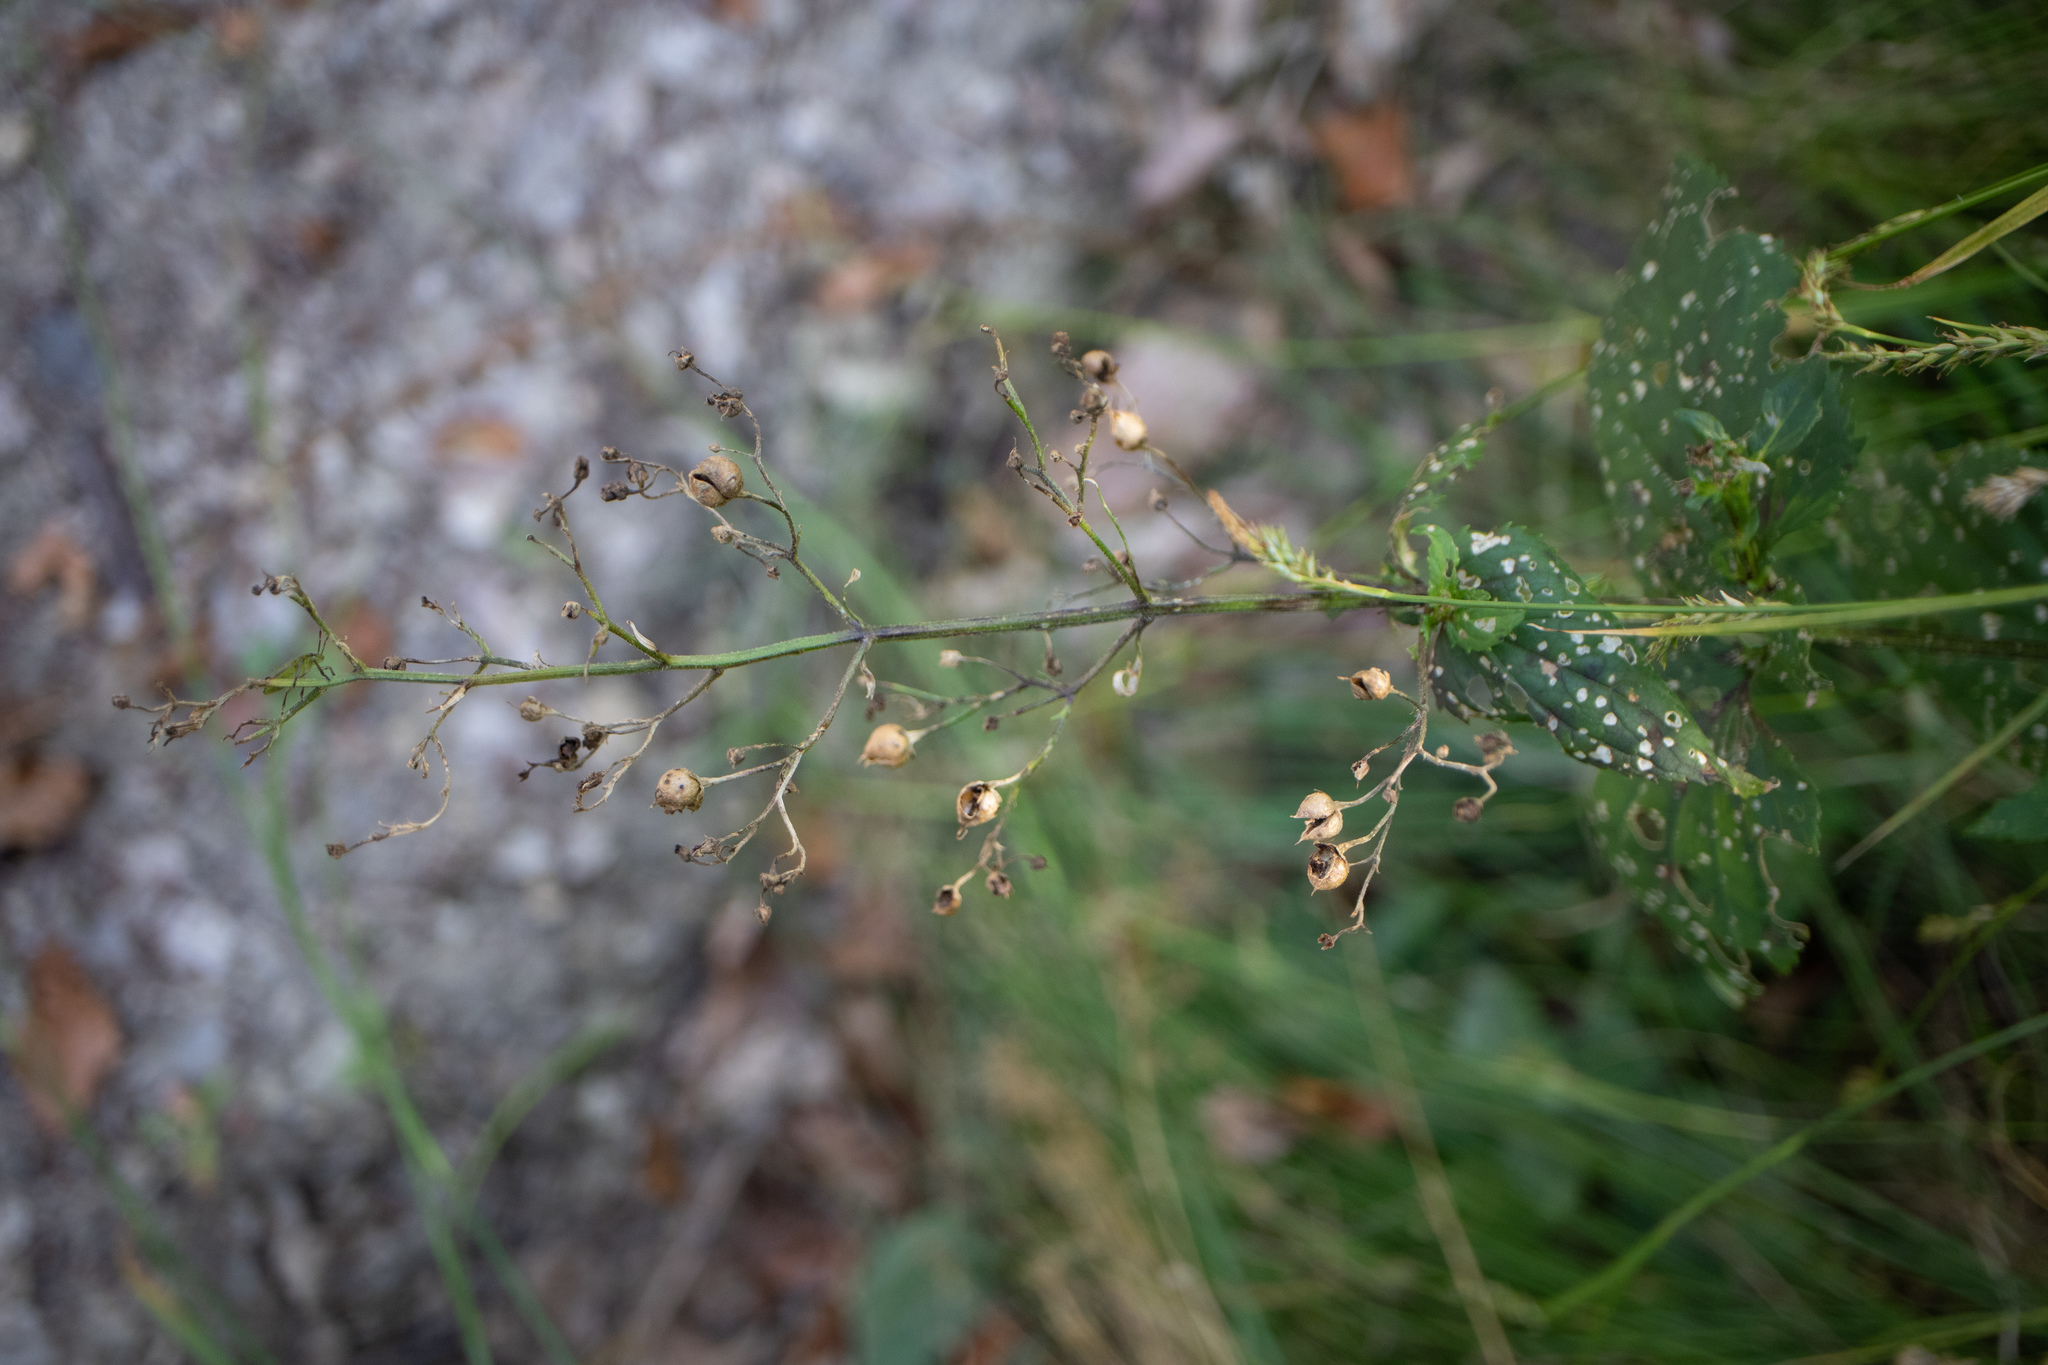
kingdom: Plantae
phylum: Tracheophyta
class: Magnoliopsida
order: Lamiales
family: Scrophulariaceae
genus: Scrophularia
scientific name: Scrophularia nodosa
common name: Common figwort
